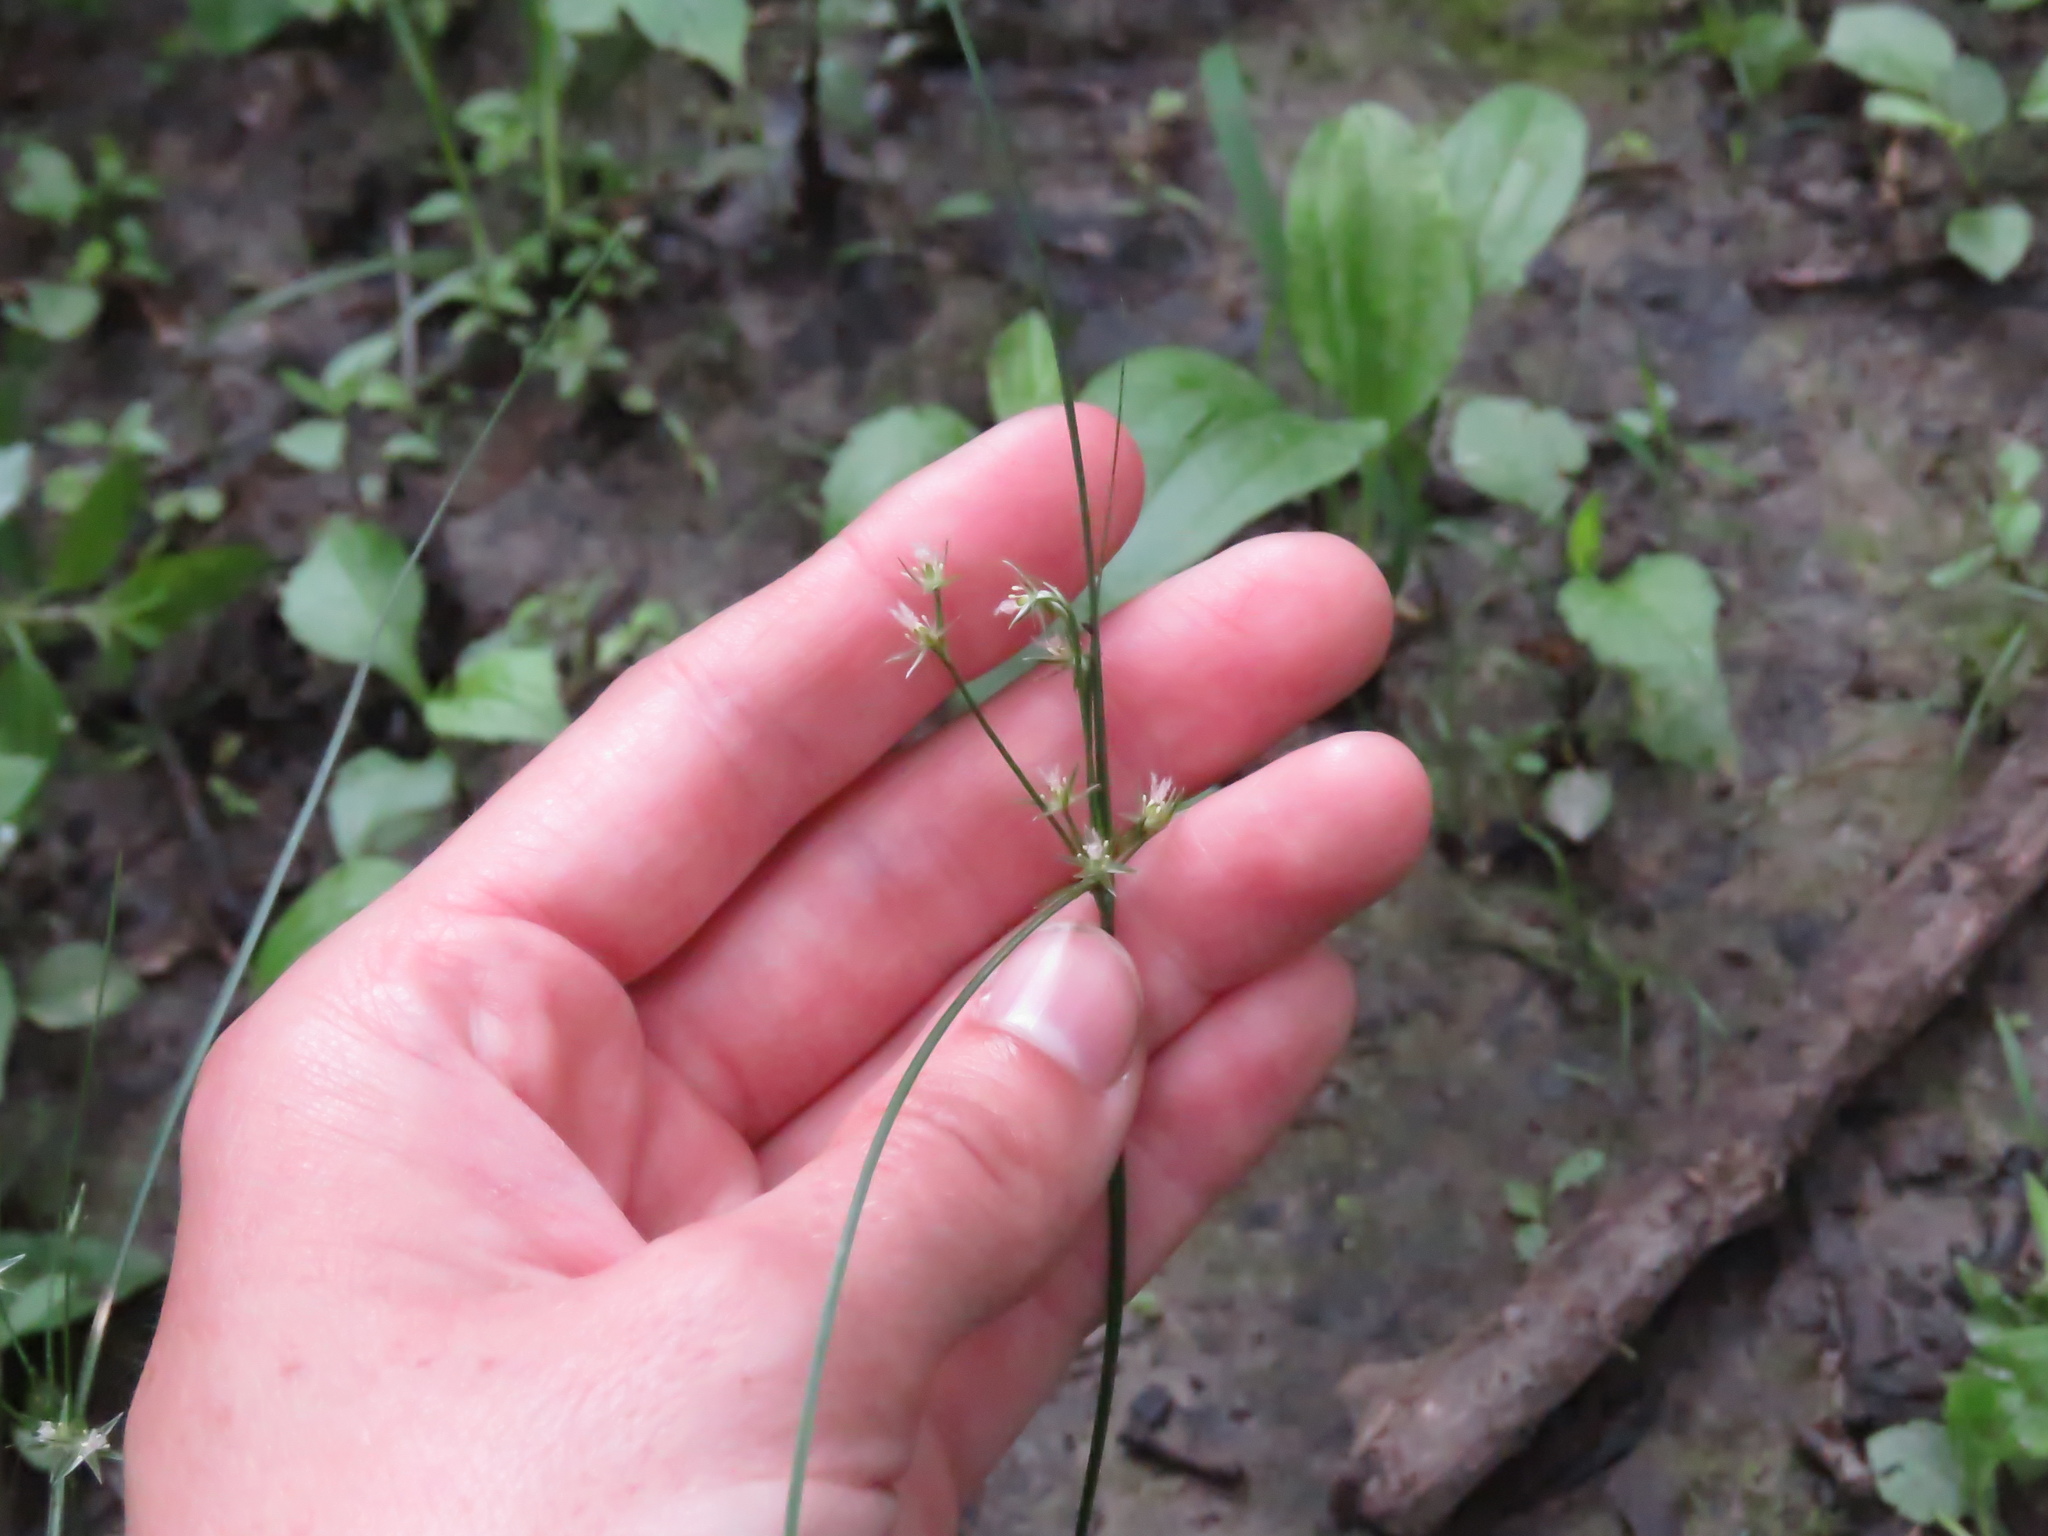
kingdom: Plantae
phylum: Tracheophyta
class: Liliopsida
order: Poales
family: Juncaceae
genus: Juncus
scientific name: Juncus tenuis
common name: Slender rush
